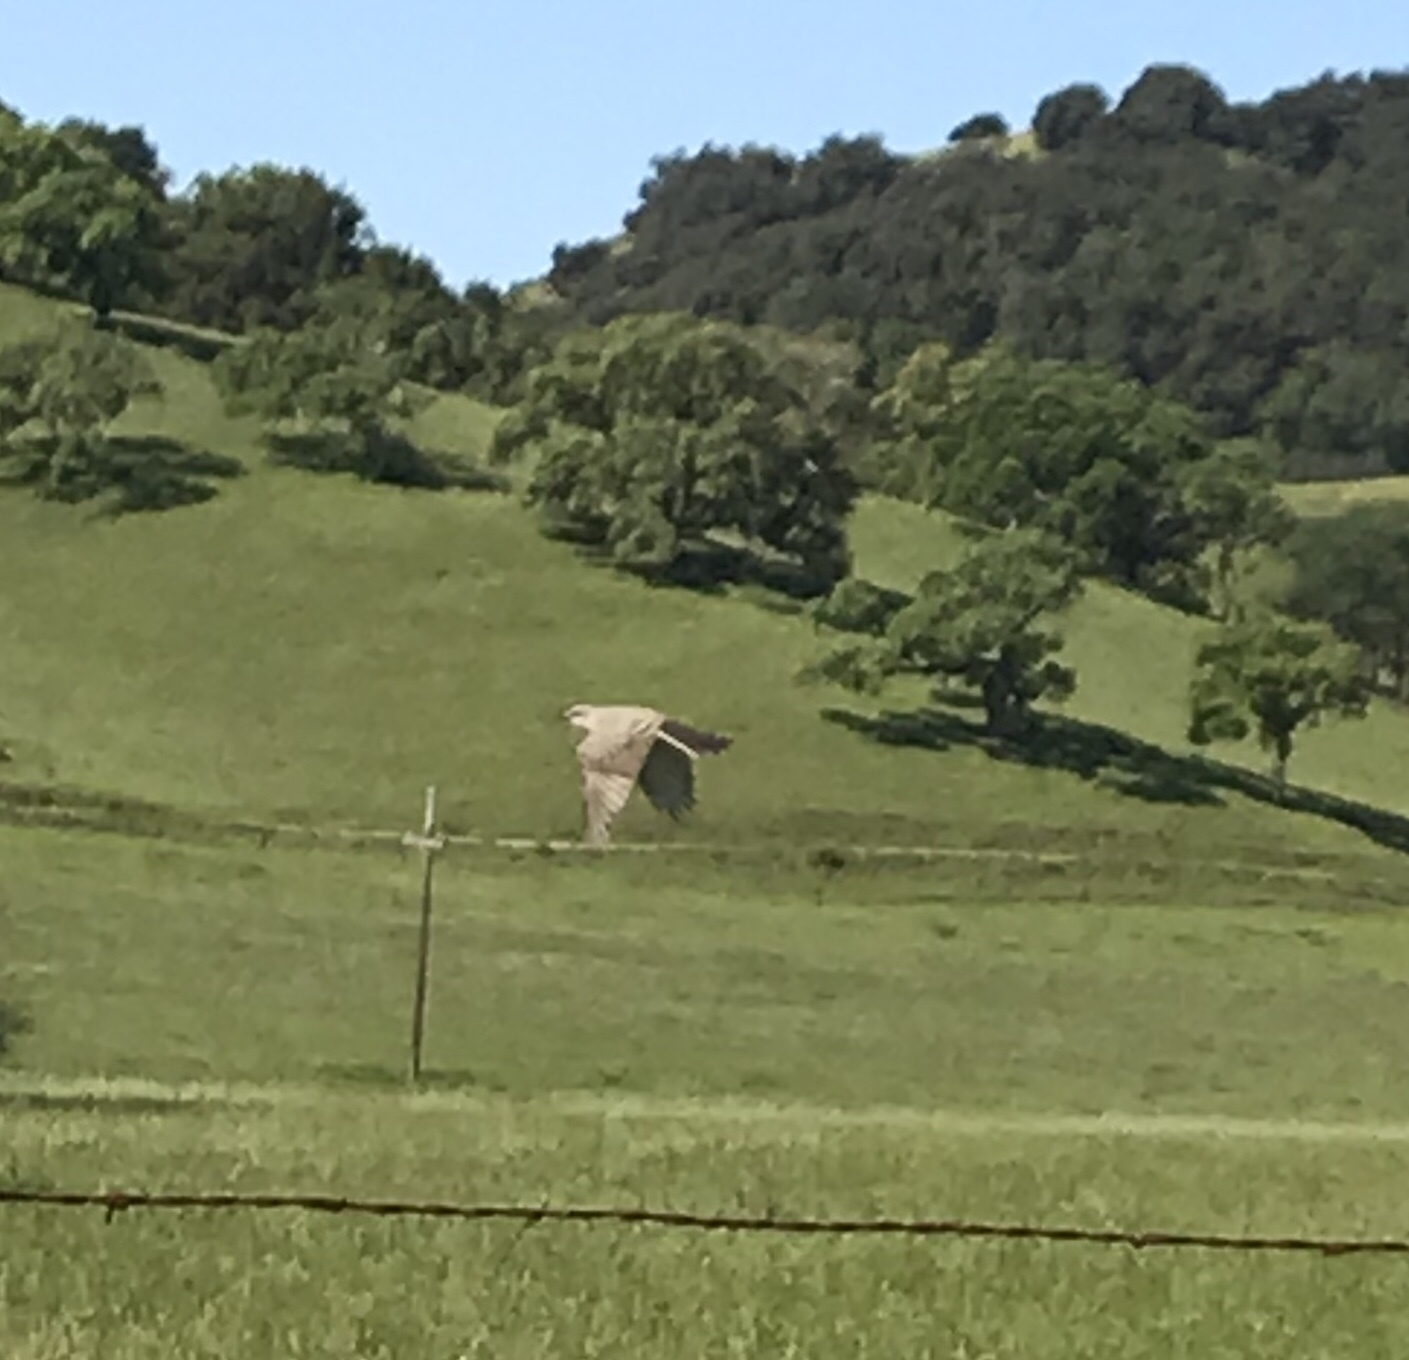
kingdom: Animalia
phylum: Chordata
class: Aves
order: Passeriformes
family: Tyrannidae
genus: Tyrannus
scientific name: Tyrannus verticalis
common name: Western kingbird
